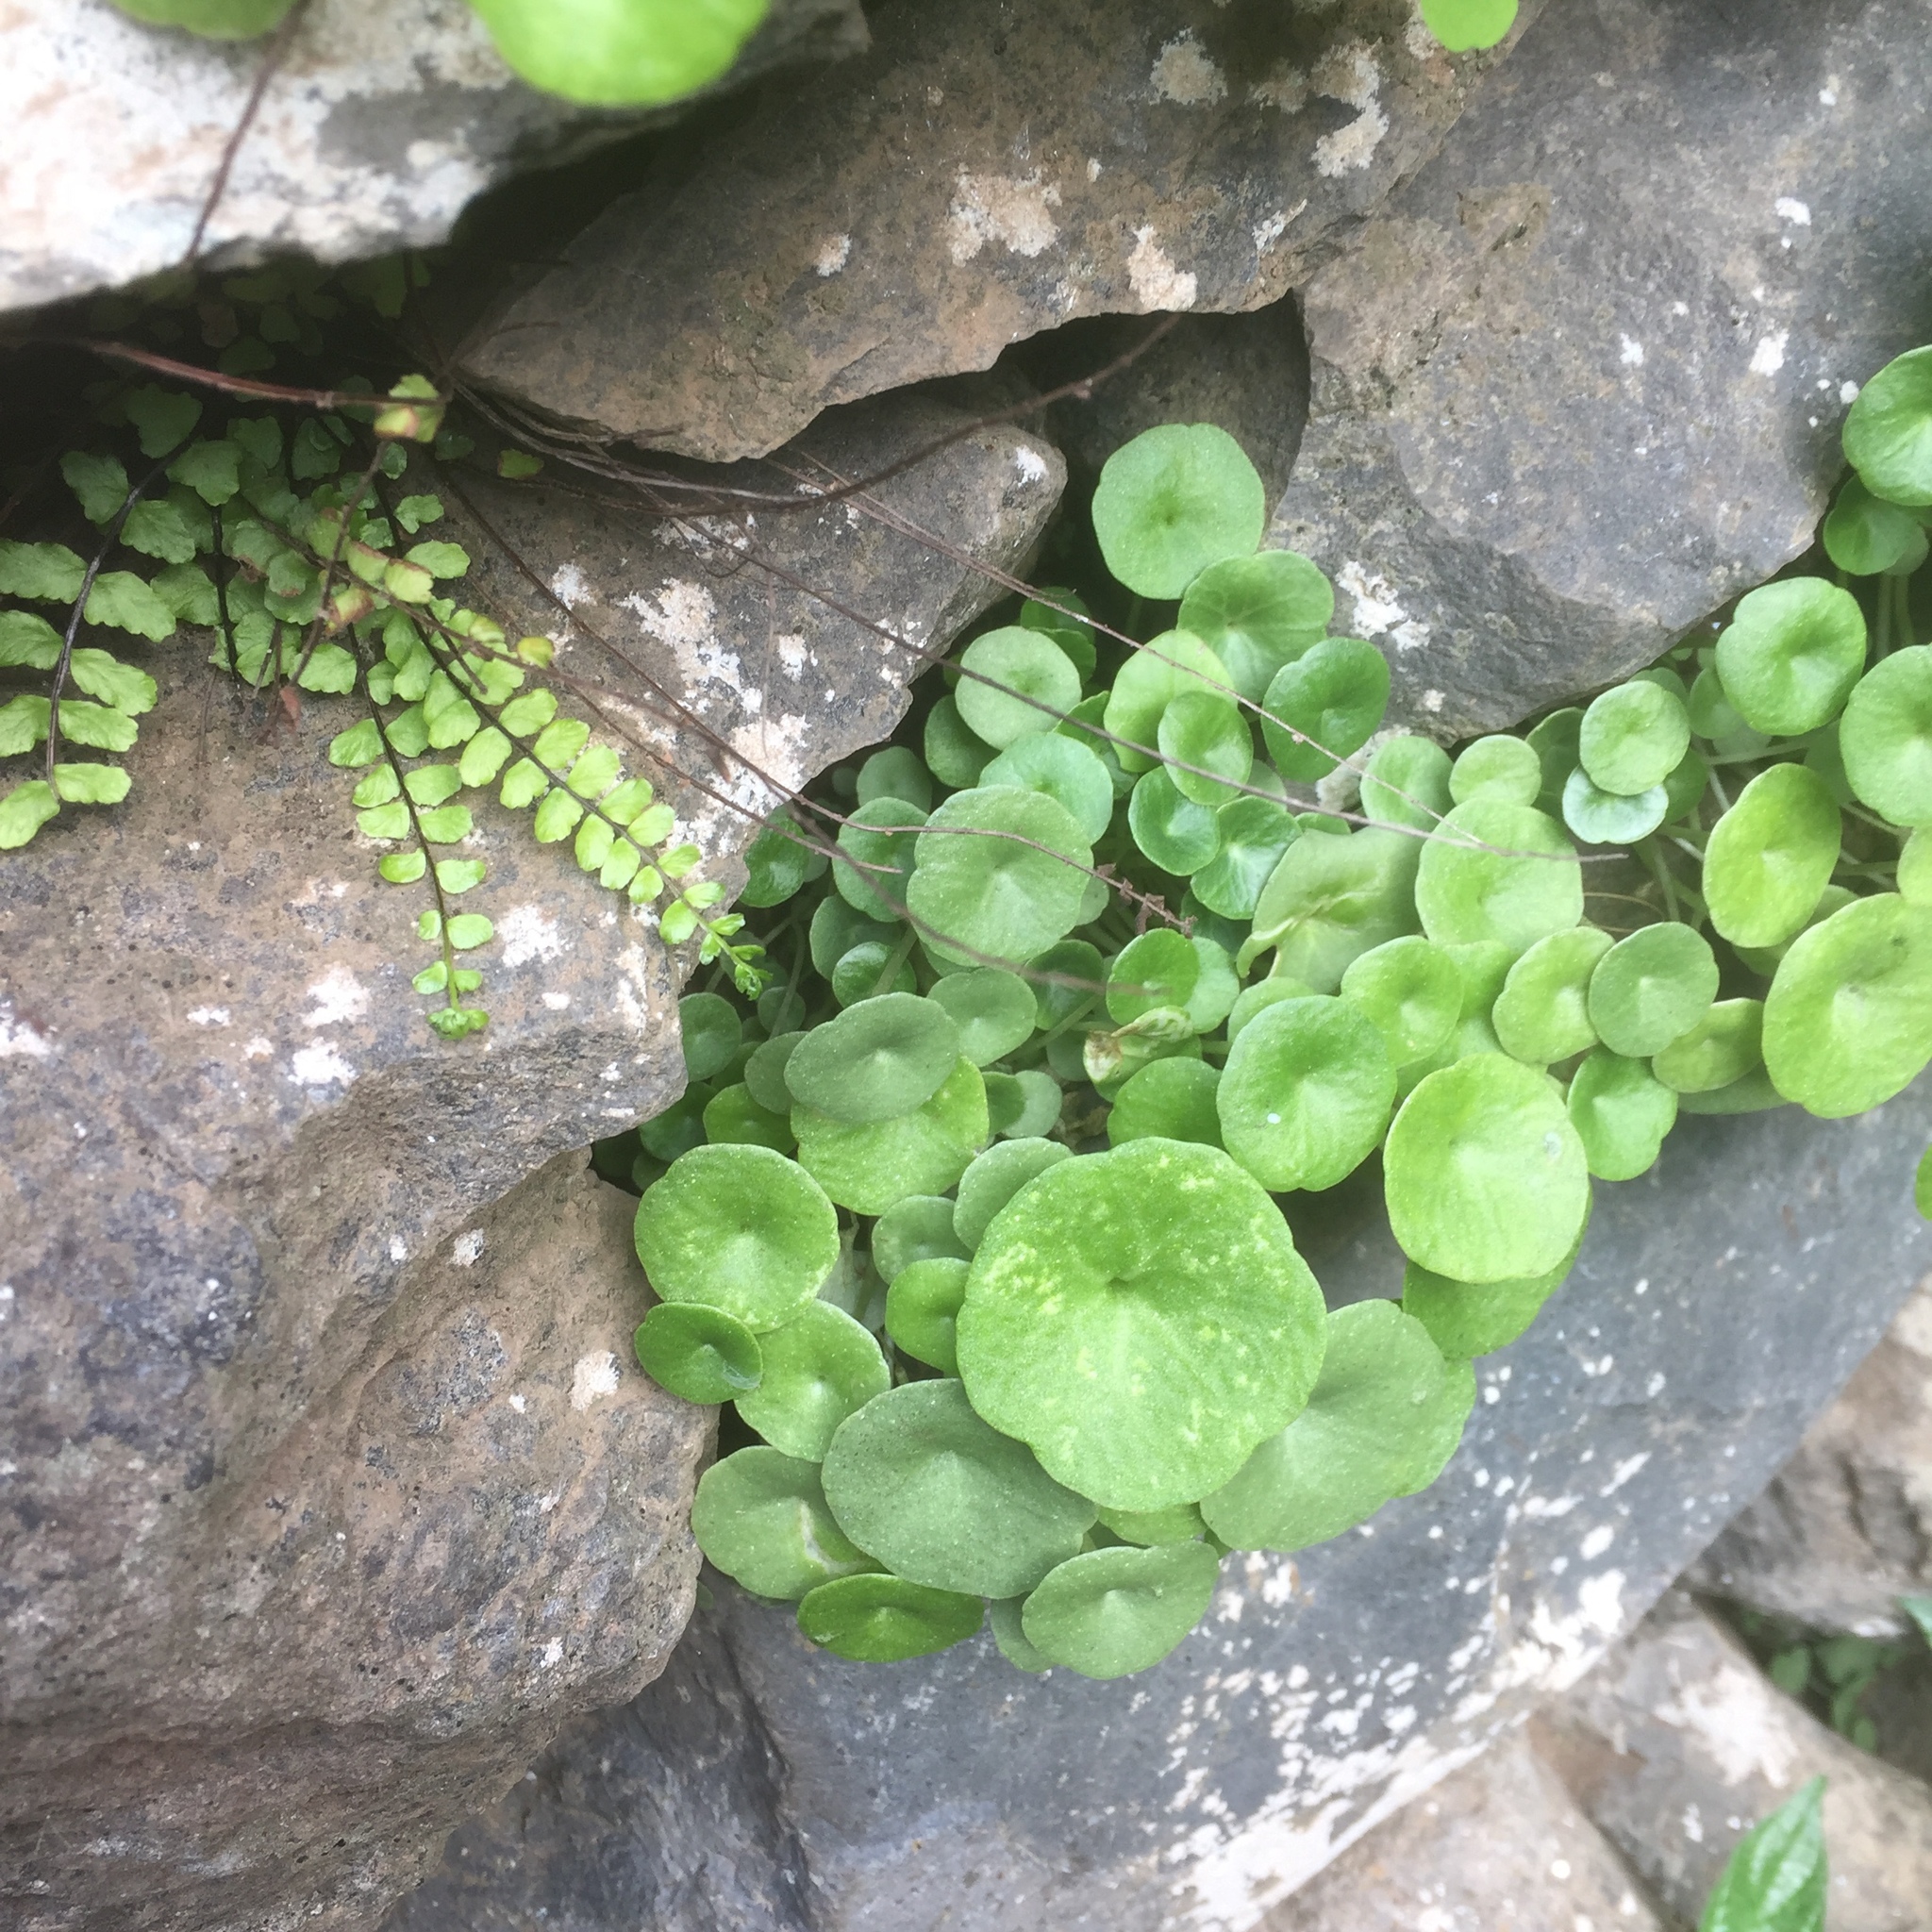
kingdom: Plantae
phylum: Tracheophyta
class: Magnoliopsida
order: Saxifragales
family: Crassulaceae
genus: Umbilicus
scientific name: Umbilicus rupestris
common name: Navelwort
